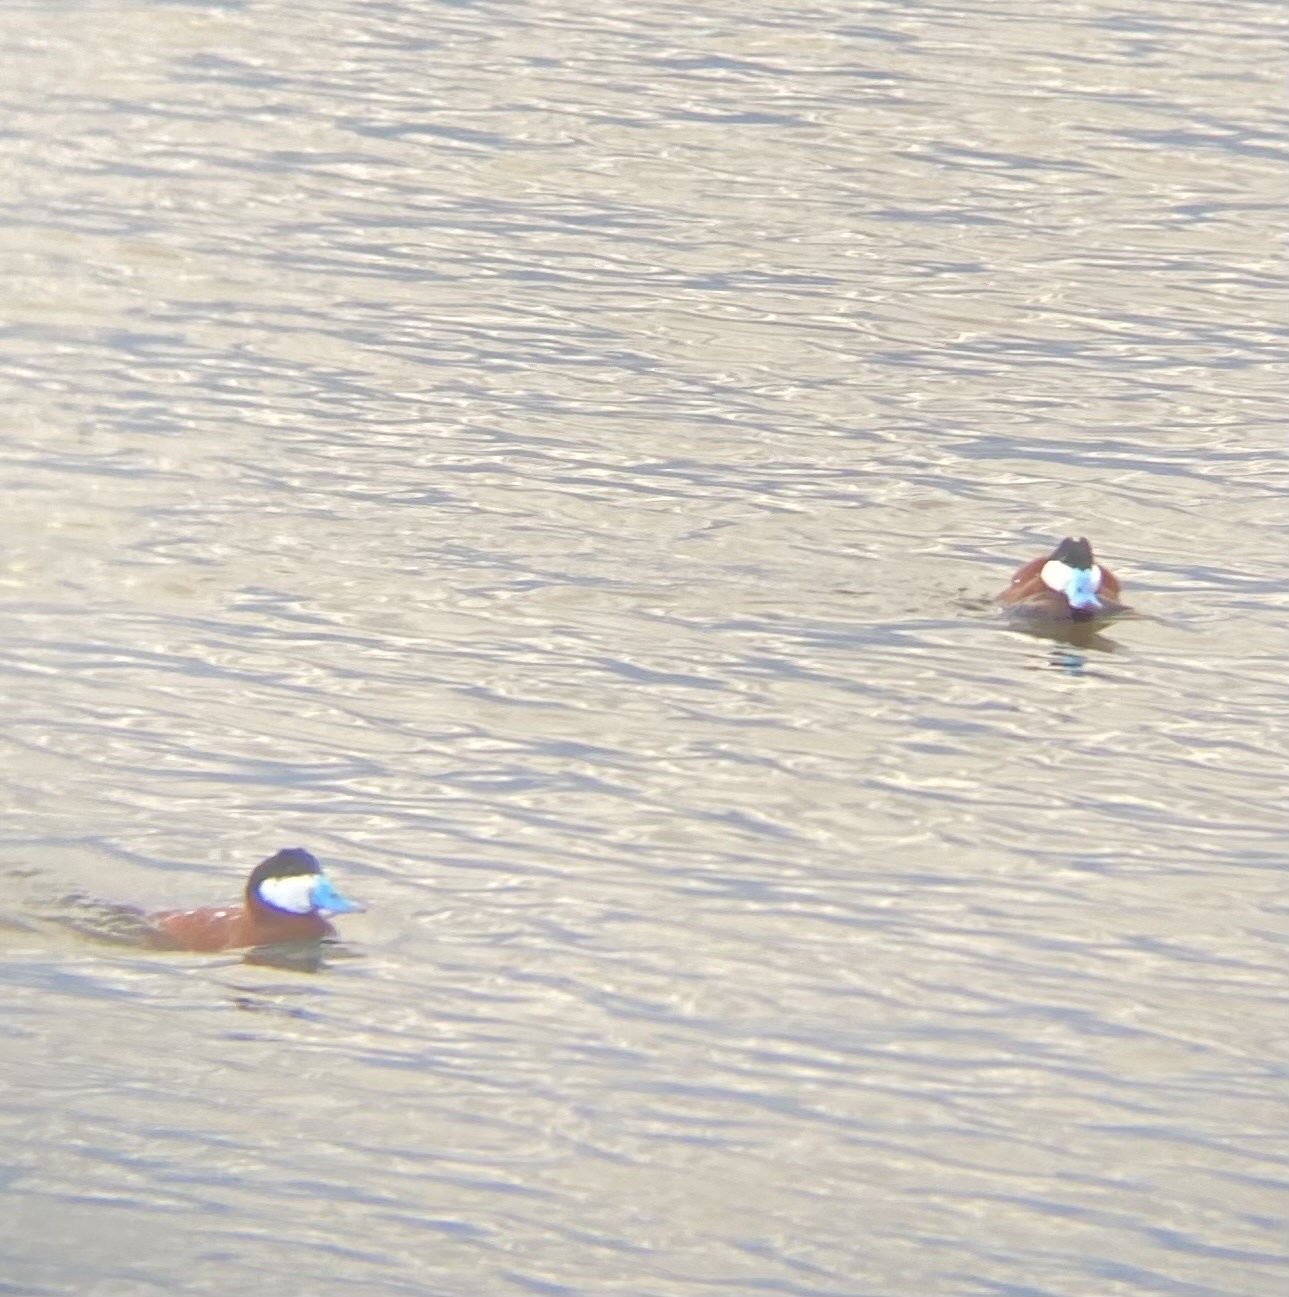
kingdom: Animalia
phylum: Chordata
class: Aves
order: Anseriformes
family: Anatidae
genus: Oxyura
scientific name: Oxyura jamaicensis
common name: Ruddy duck
